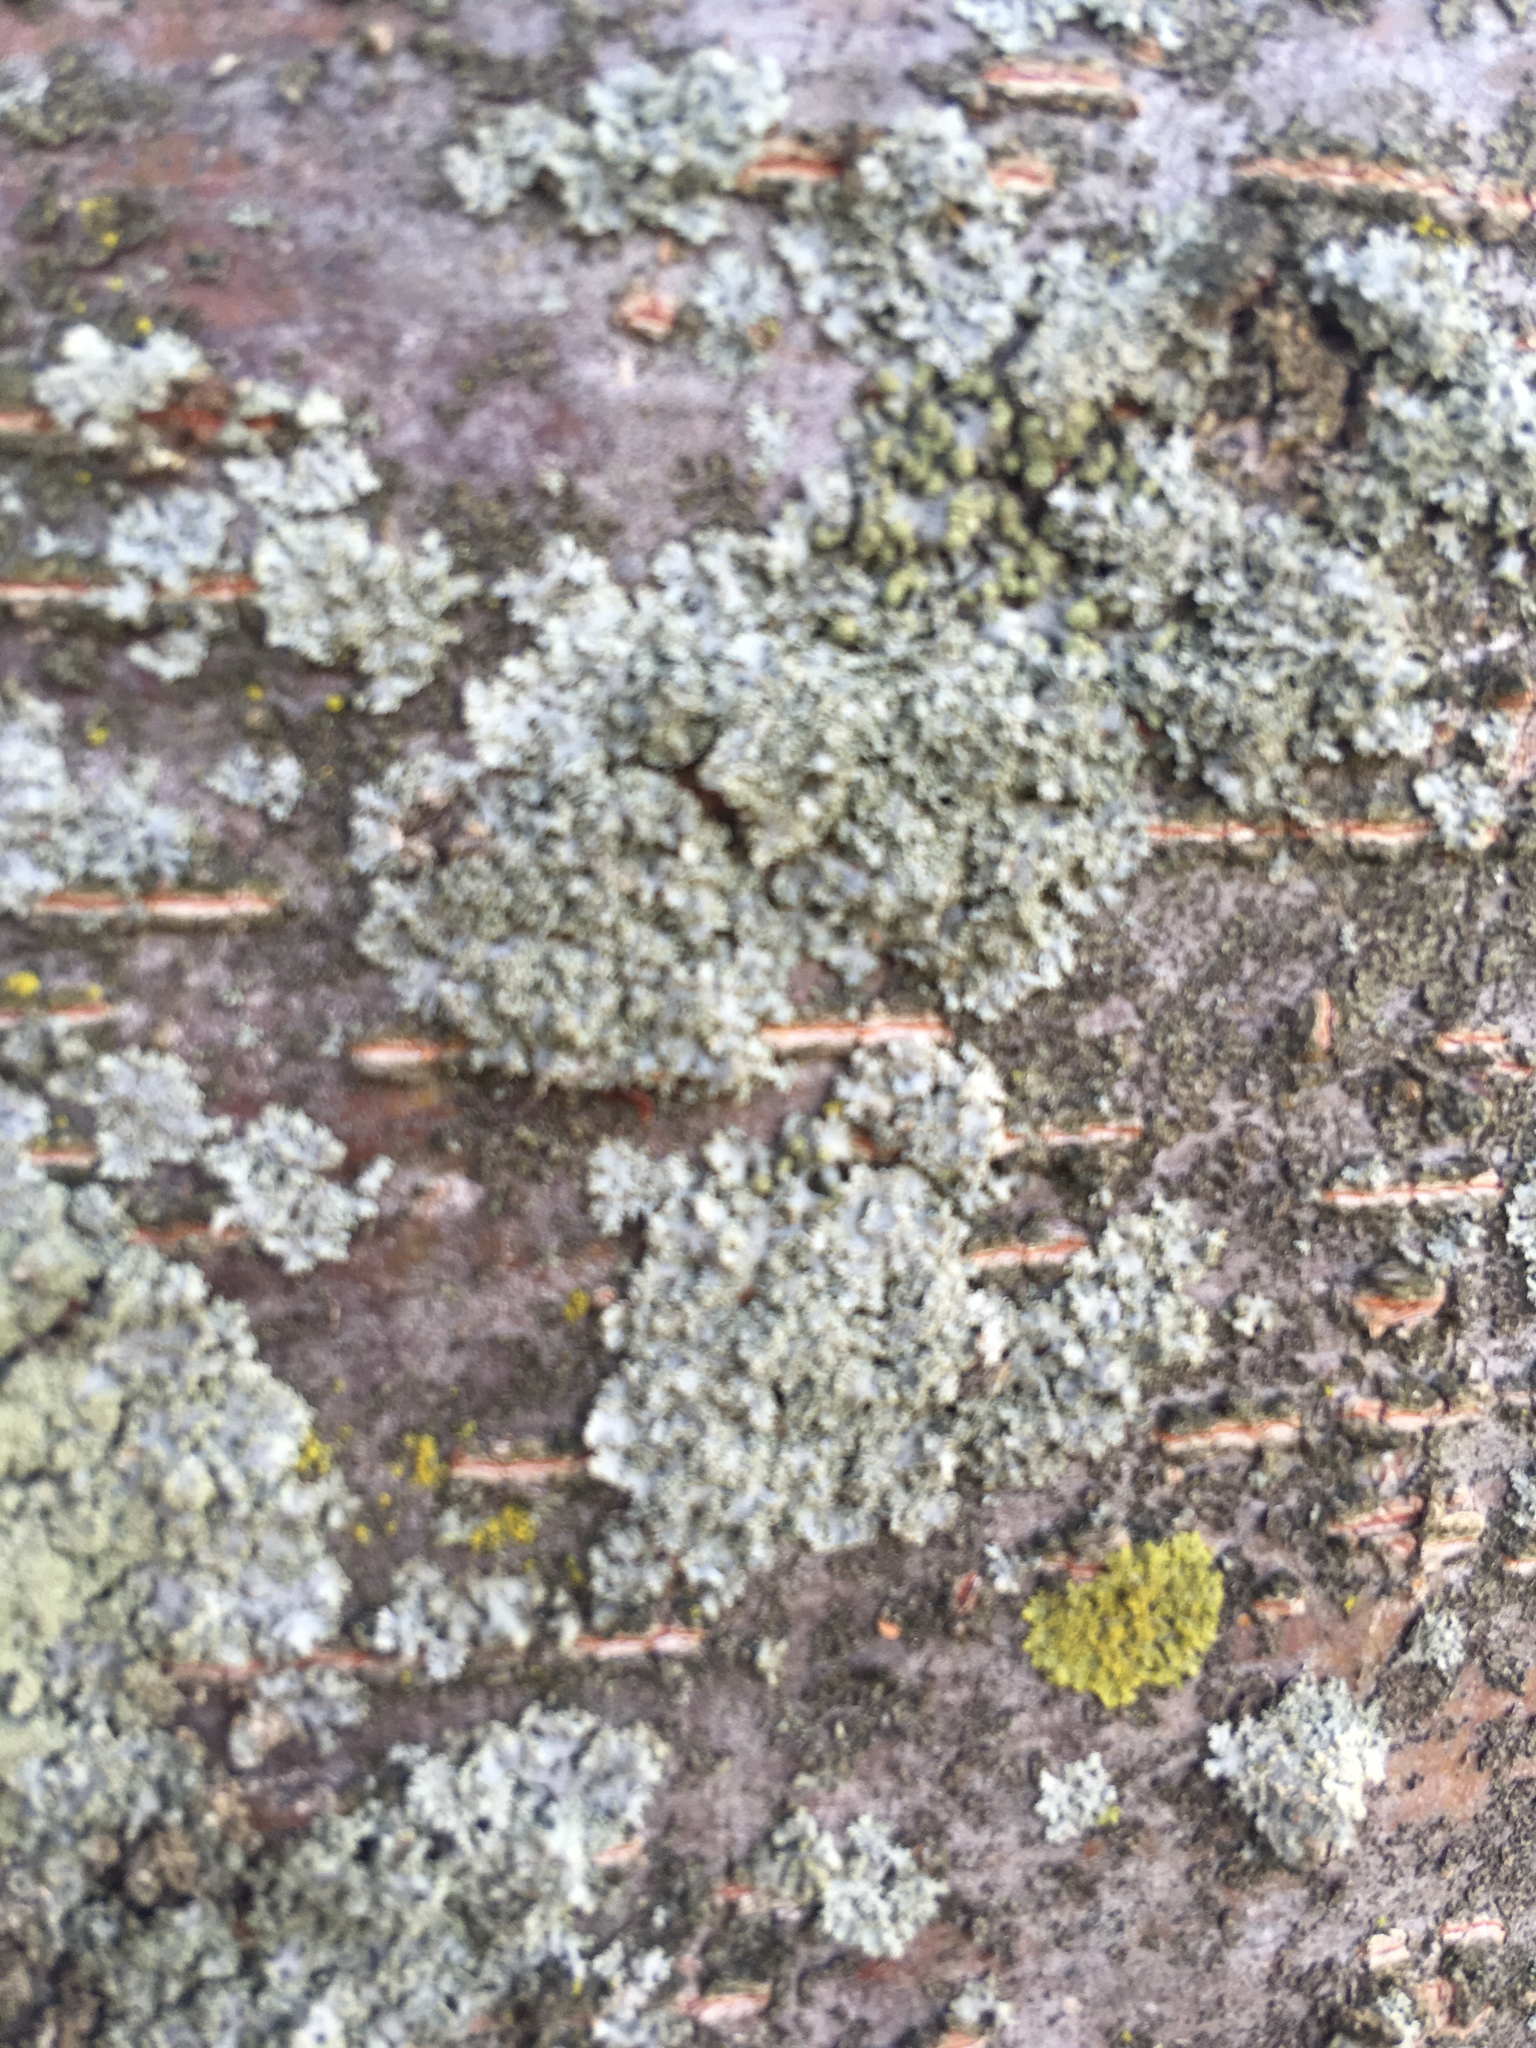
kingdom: Fungi
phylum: Ascomycota
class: Lecanoromycetes
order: Caliciales
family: Physciaceae
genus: Physcia
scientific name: Physcia millegrana
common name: Rosette lichen
